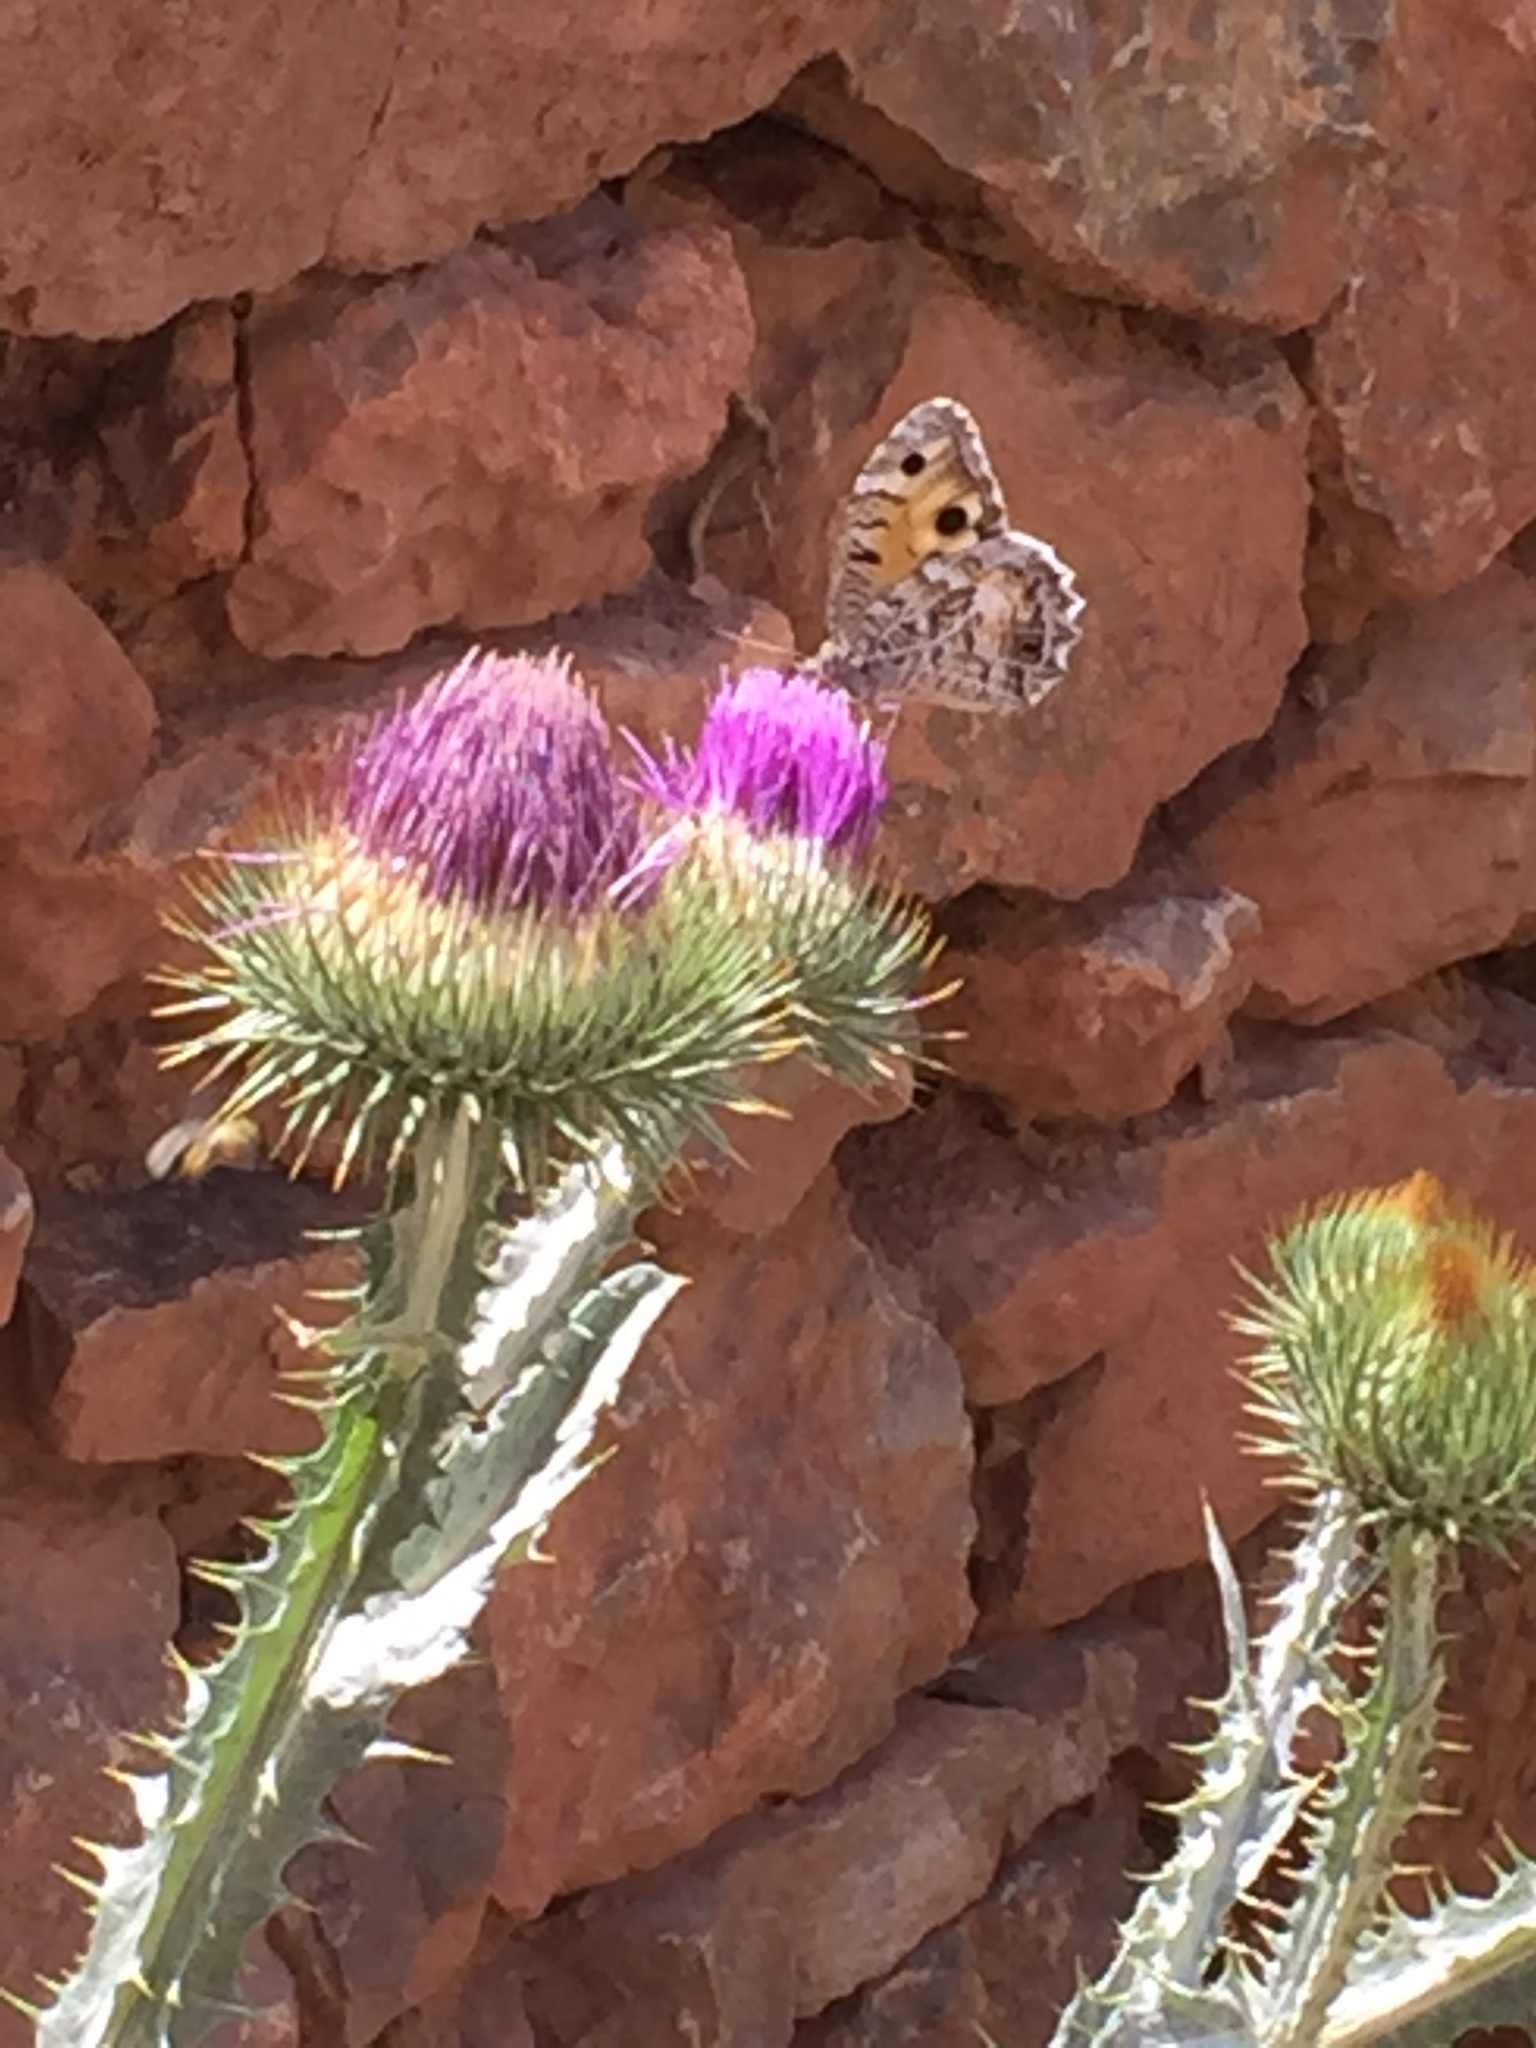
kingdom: Plantae
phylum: Tracheophyta
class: Magnoliopsida
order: Asterales
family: Asteraceae
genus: Onopordum
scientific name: Onopordum acanthium
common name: Scotch thistle
